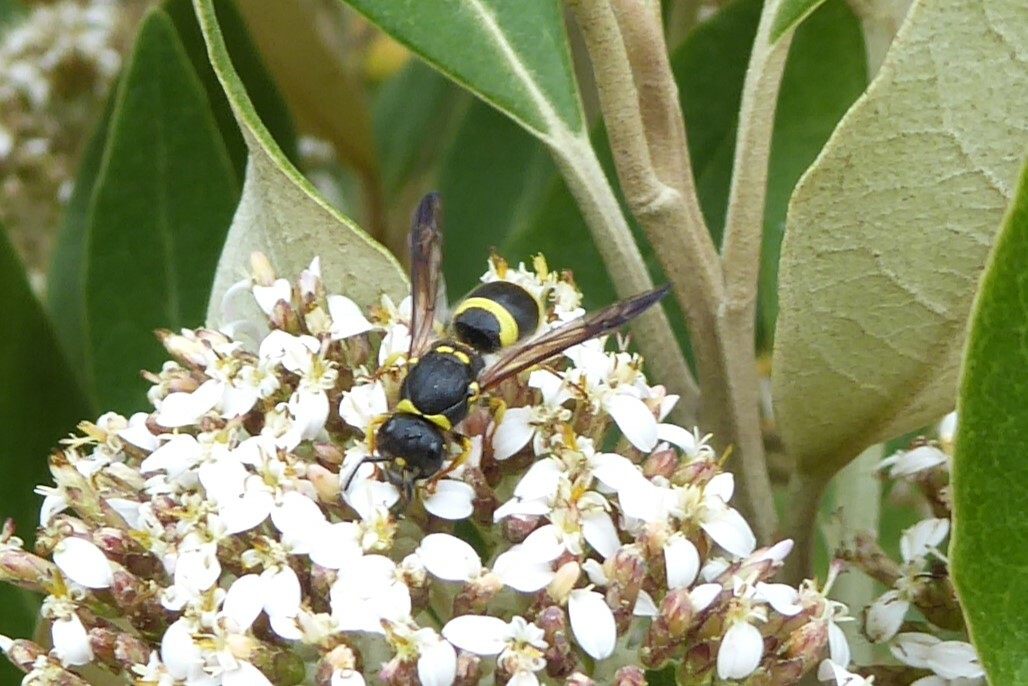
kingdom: Animalia
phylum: Arthropoda
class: Insecta
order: Hymenoptera
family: Vespidae
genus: Ancistrocerus
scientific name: Ancistrocerus gazella
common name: European tube wasp
